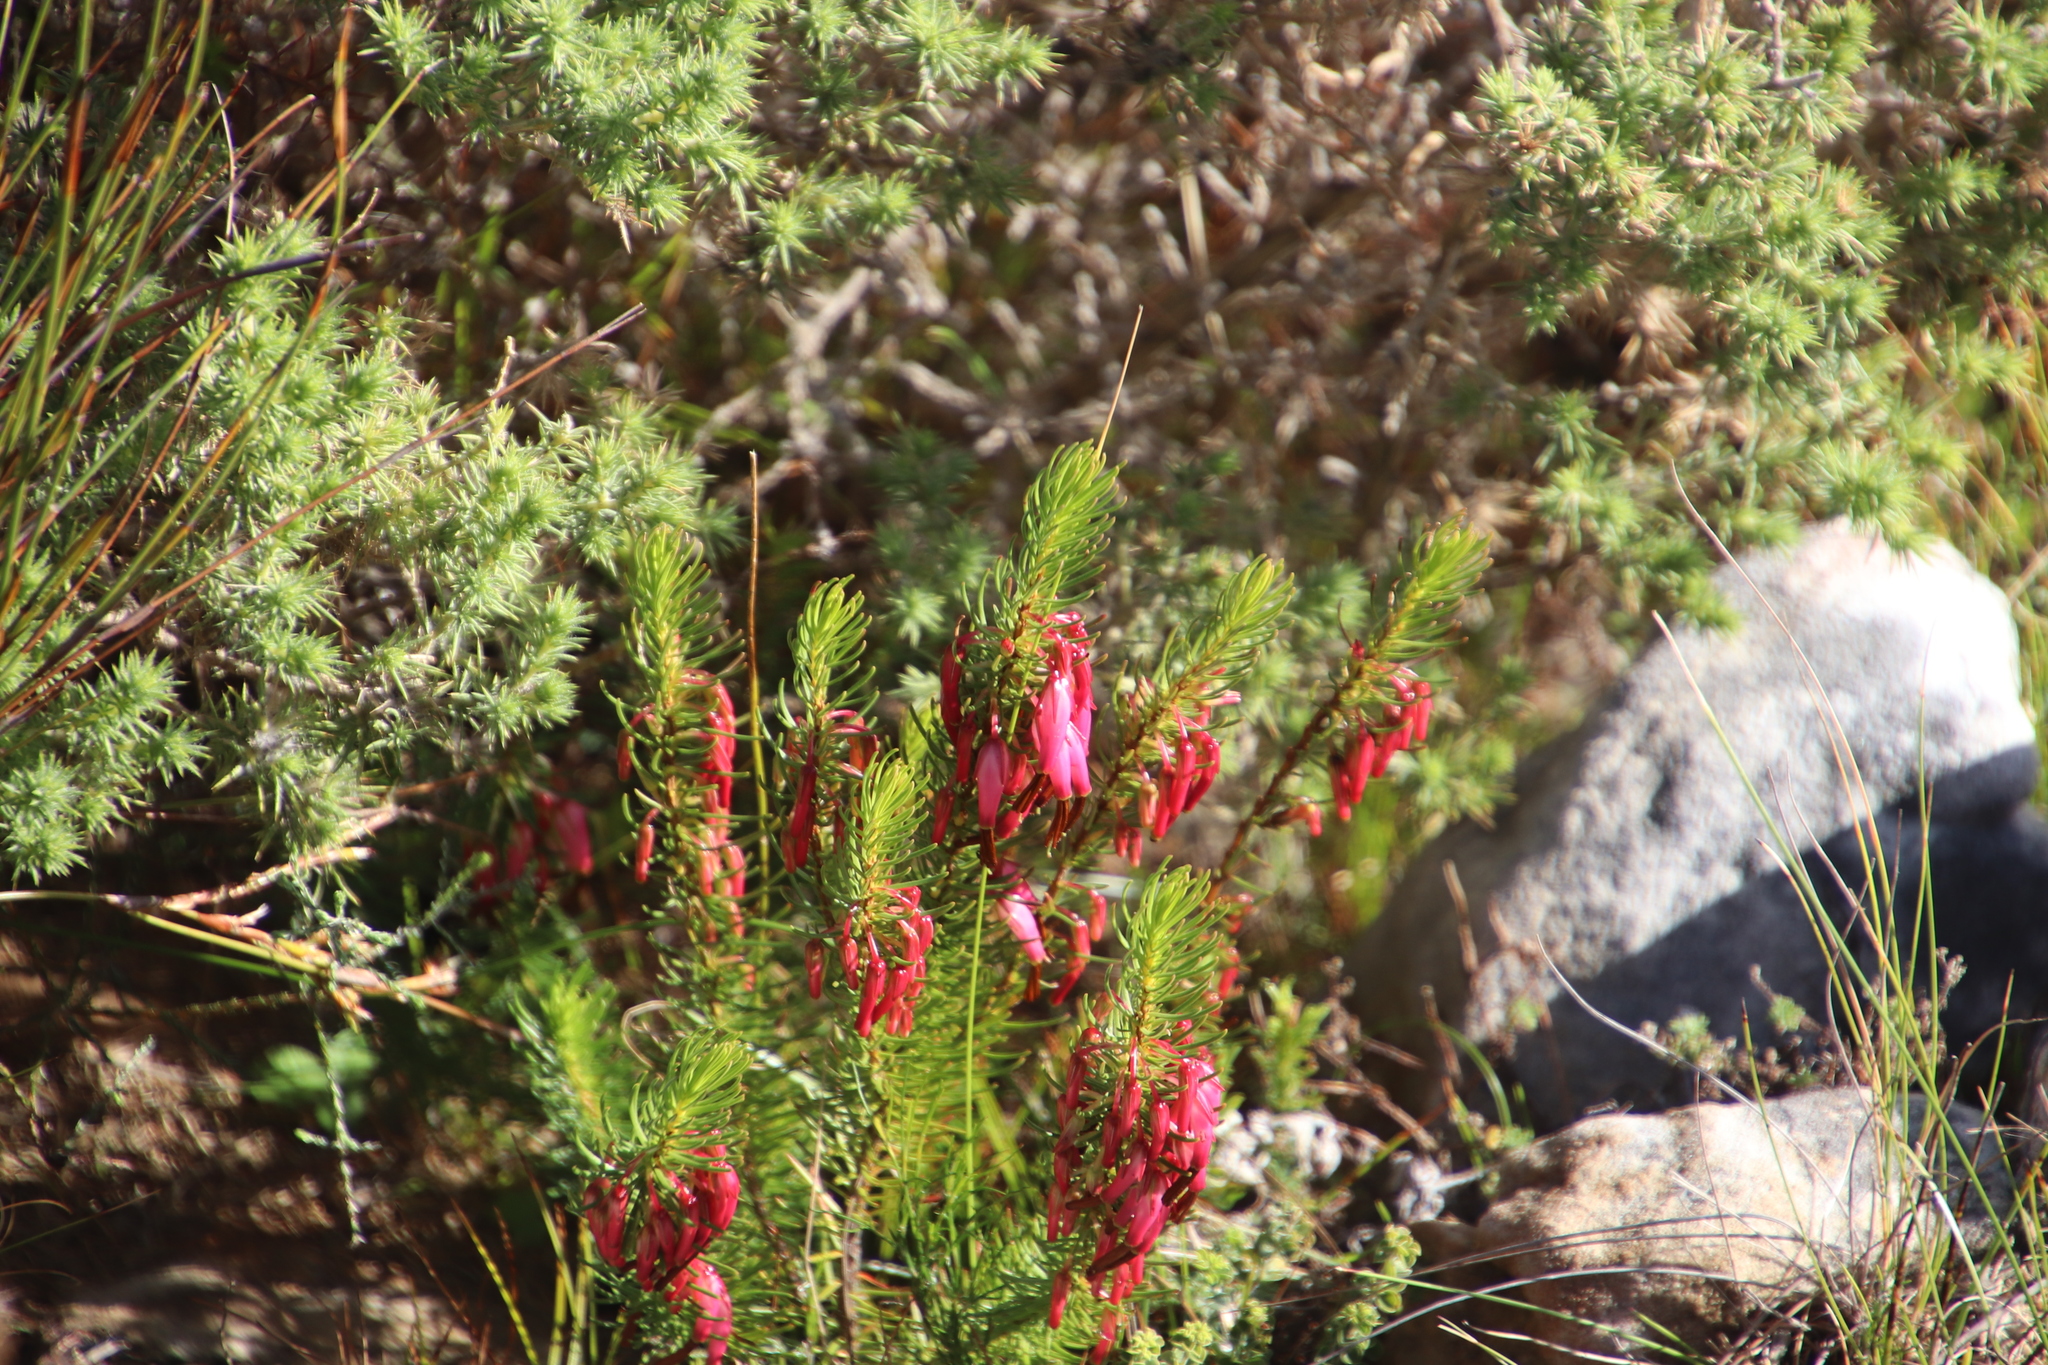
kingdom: Plantae
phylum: Tracheophyta
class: Magnoliopsida
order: Ericales
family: Ericaceae
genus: Erica
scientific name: Erica plukenetii
